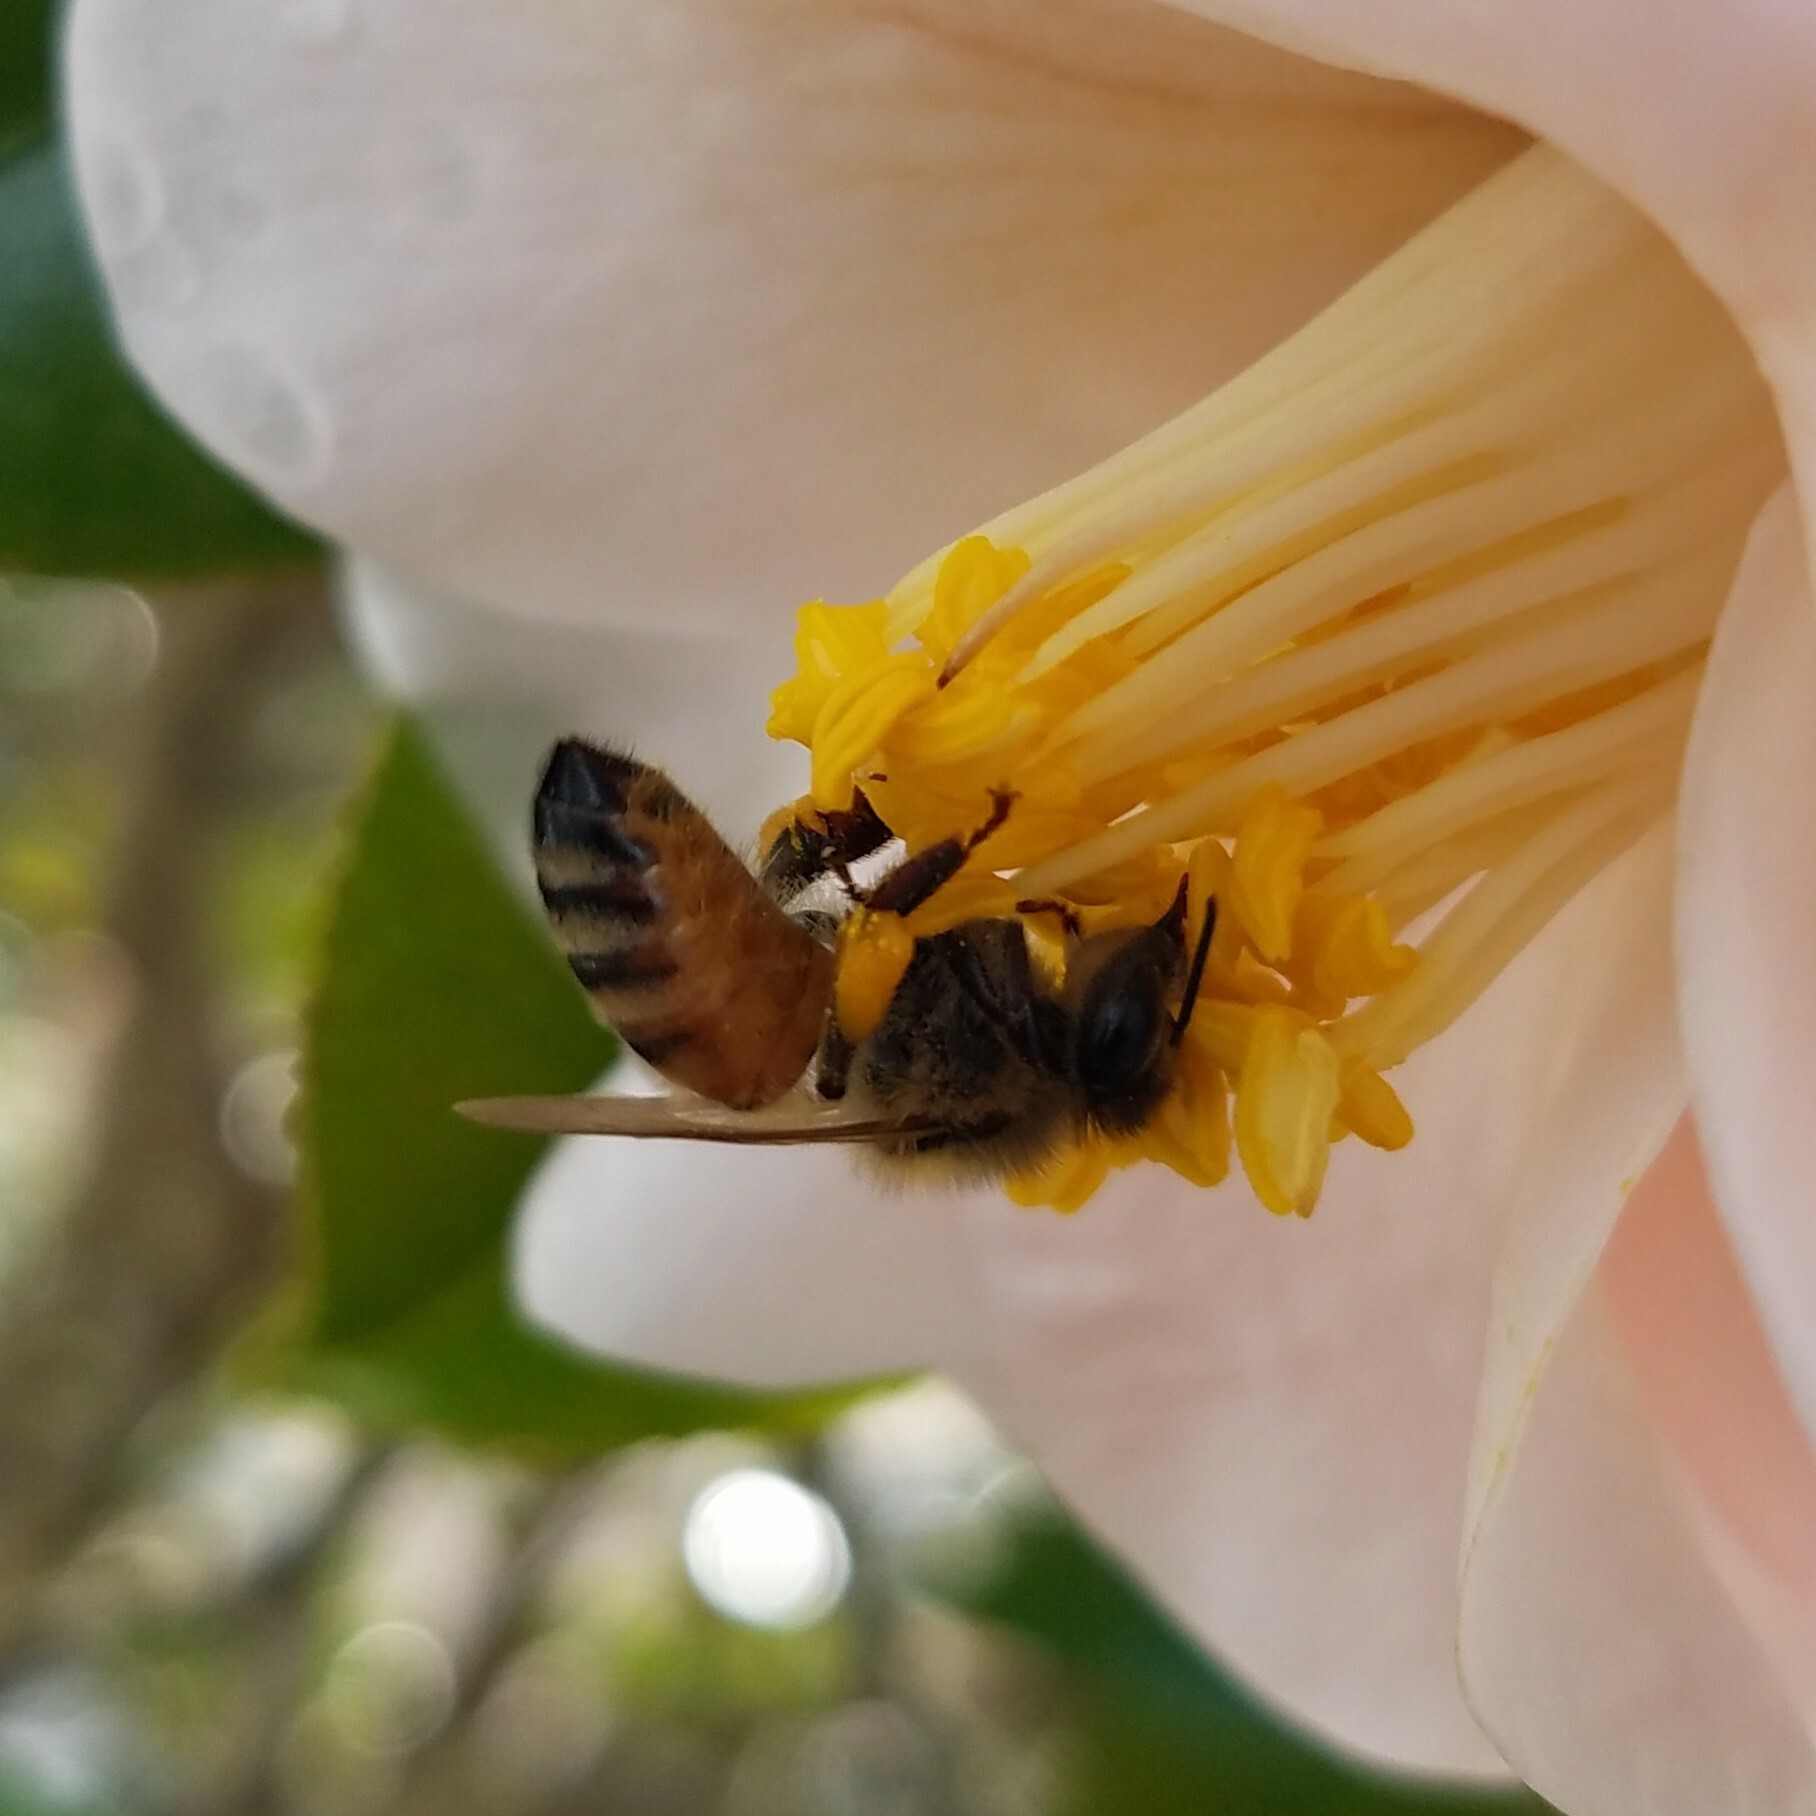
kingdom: Animalia
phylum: Arthropoda
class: Insecta
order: Hymenoptera
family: Apidae
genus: Apis
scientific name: Apis mellifera
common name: Honey bee
